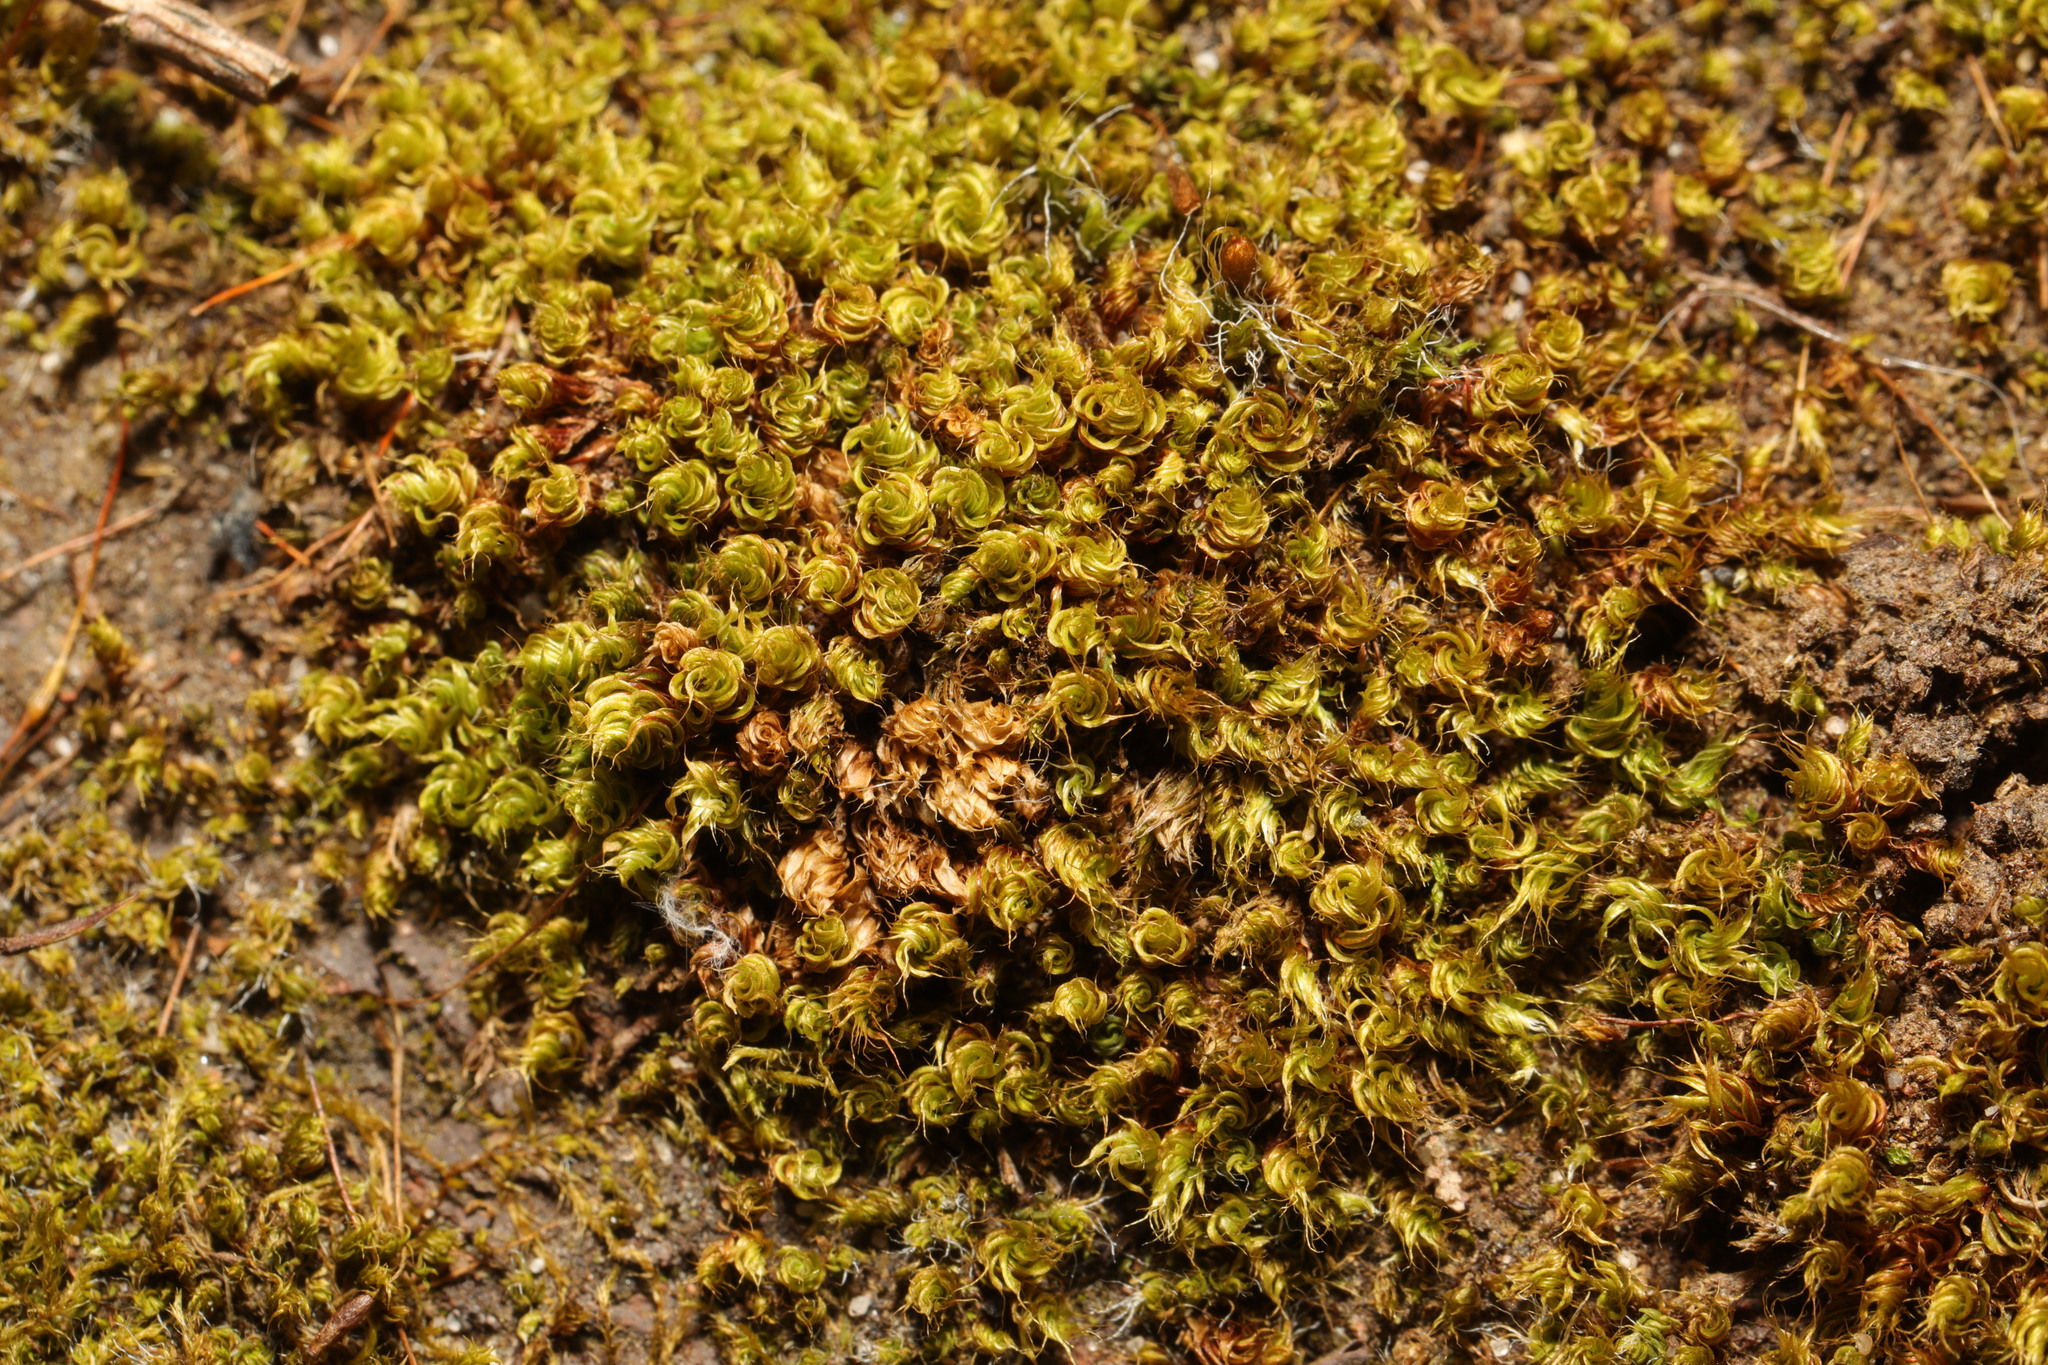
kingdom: Plantae
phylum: Bryophyta
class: Bryopsida
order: Bryales
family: Bryaceae
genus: Rosulabryum
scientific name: Rosulabryum capillare
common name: Capillary thread-moss
